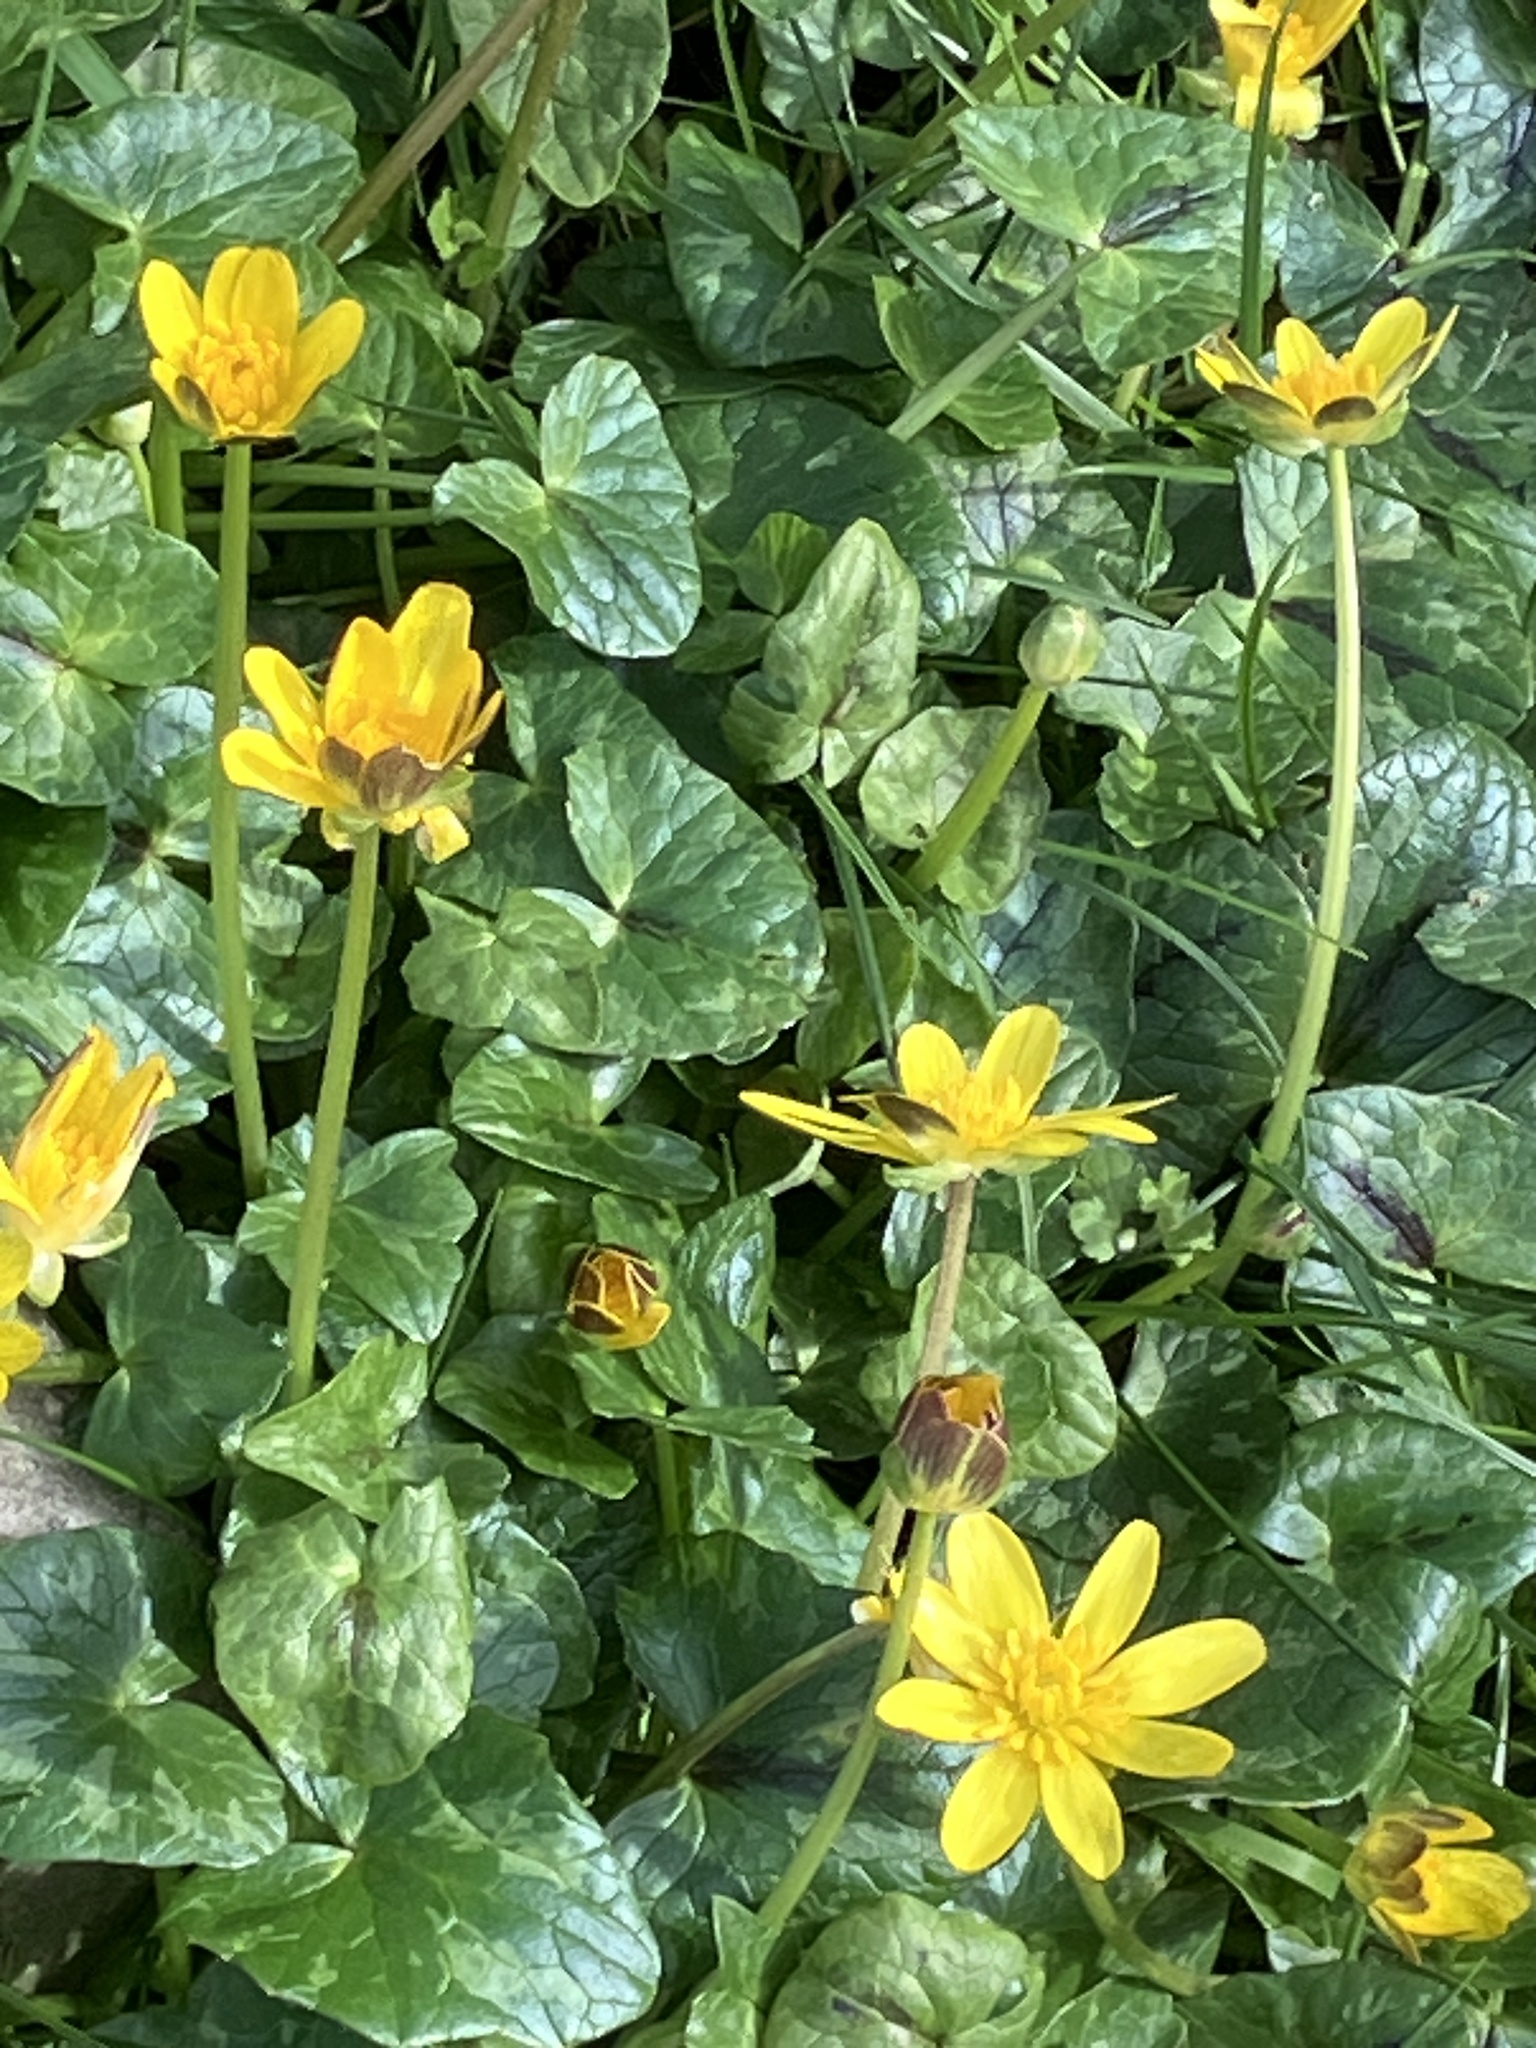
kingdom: Plantae
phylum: Tracheophyta
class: Magnoliopsida
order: Ranunculales
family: Ranunculaceae
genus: Ficaria
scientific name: Ficaria verna
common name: Lesser celandine
